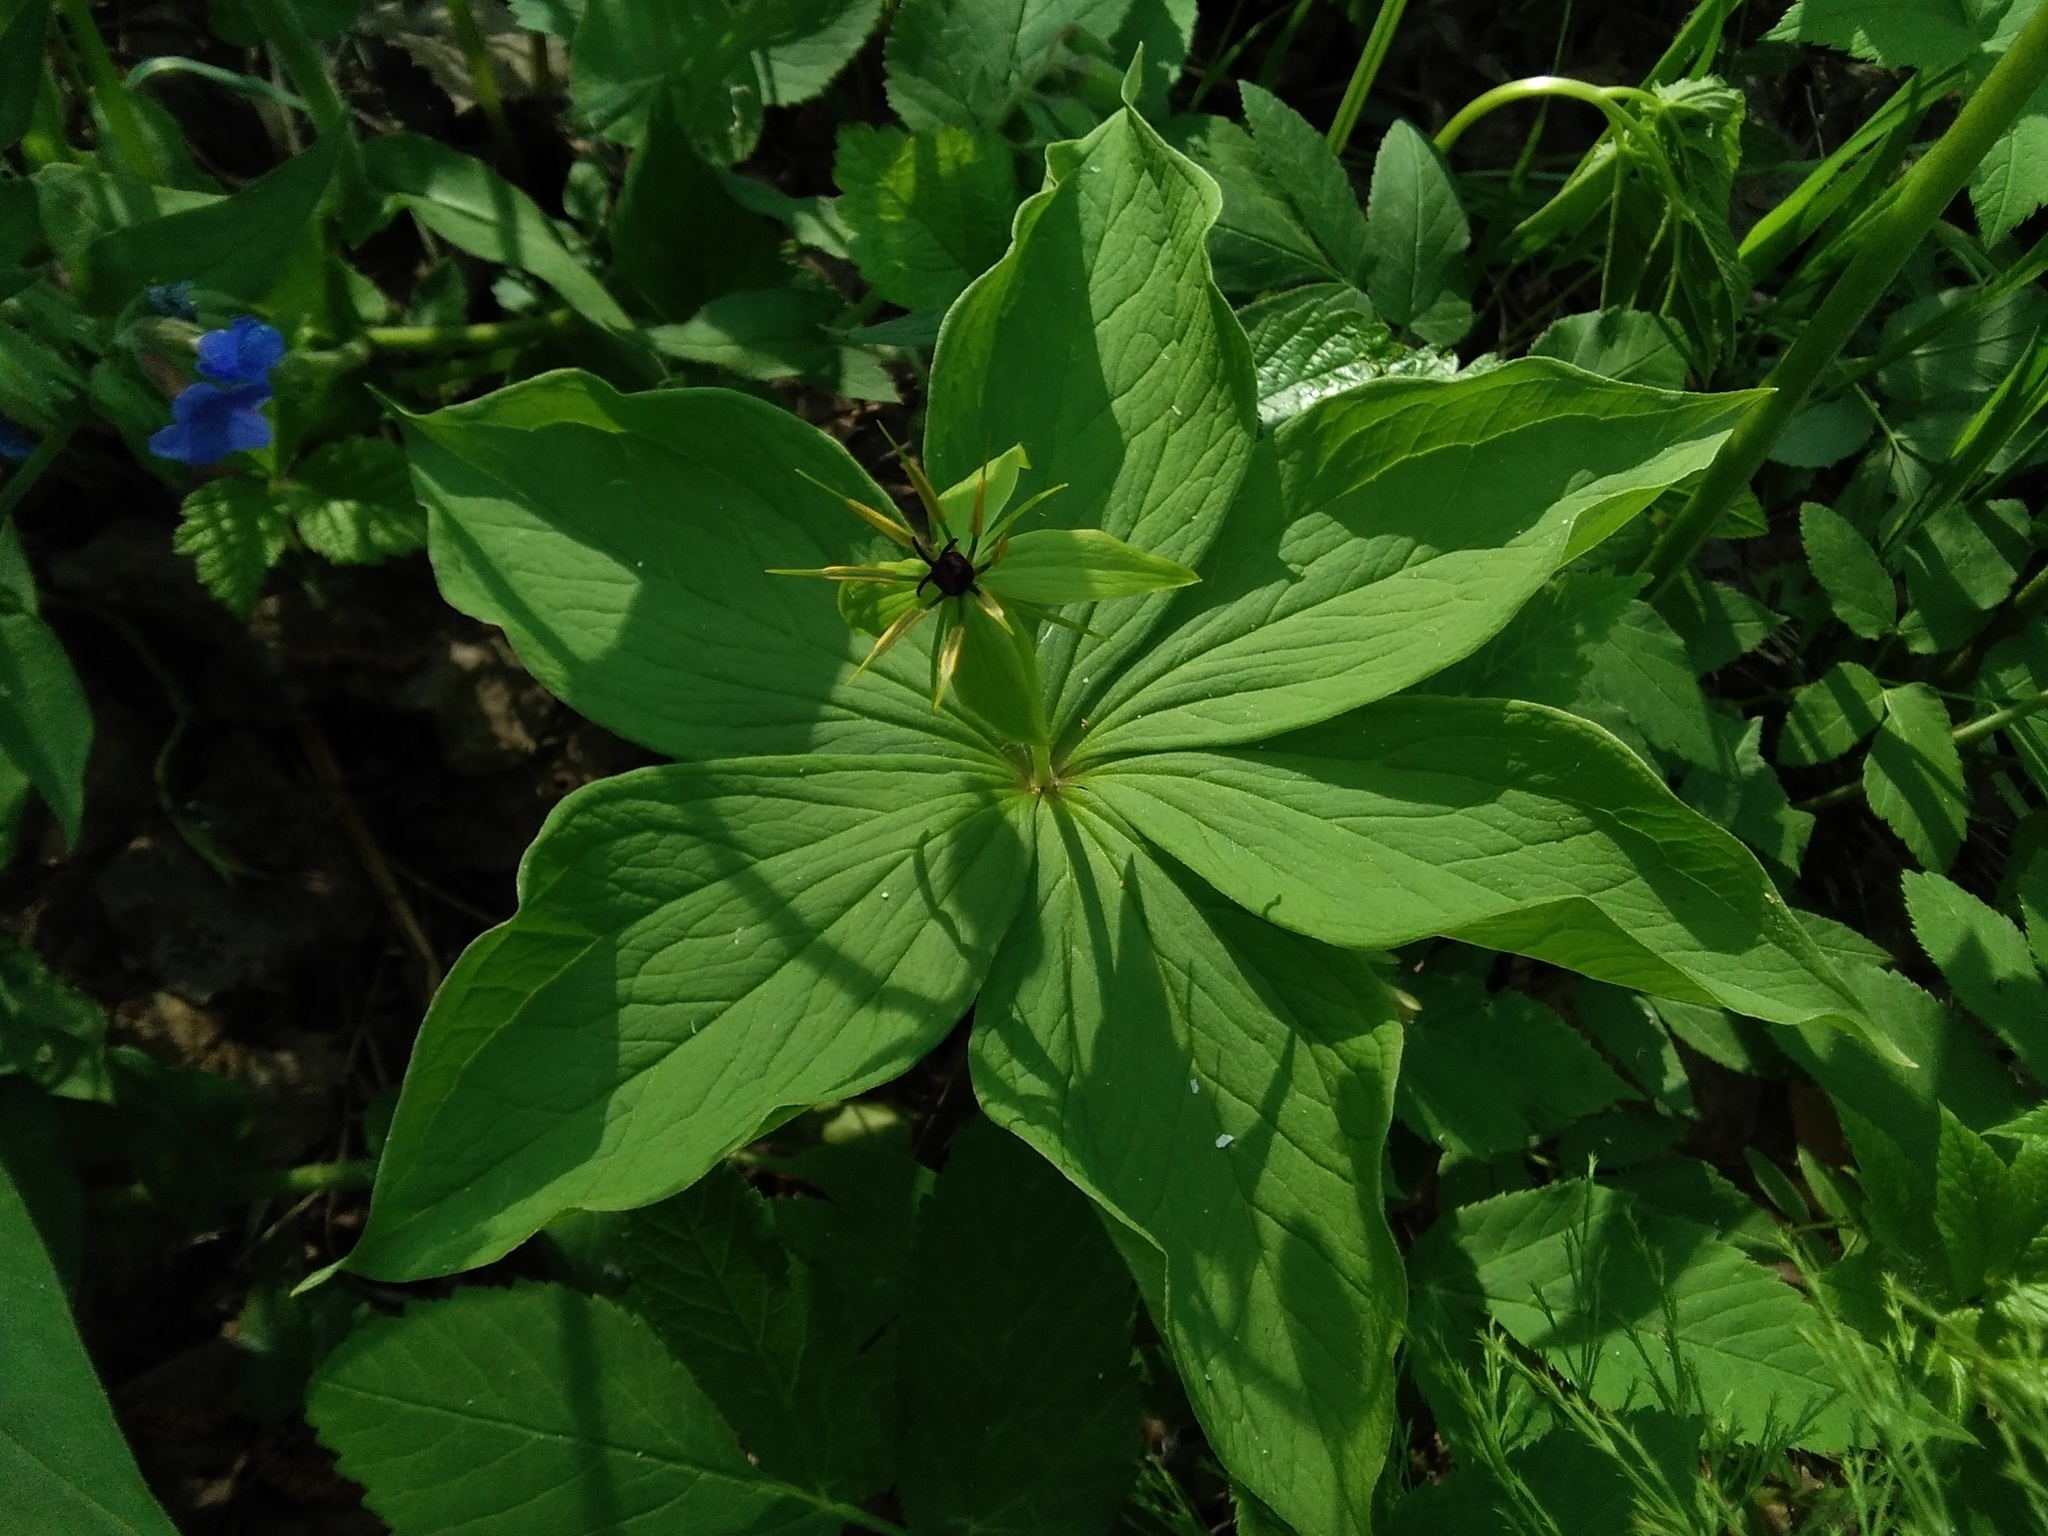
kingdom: Plantae
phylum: Tracheophyta
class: Liliopsida
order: Liliales
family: Melanthiaceae
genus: Paris
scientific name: Paris verticillata
